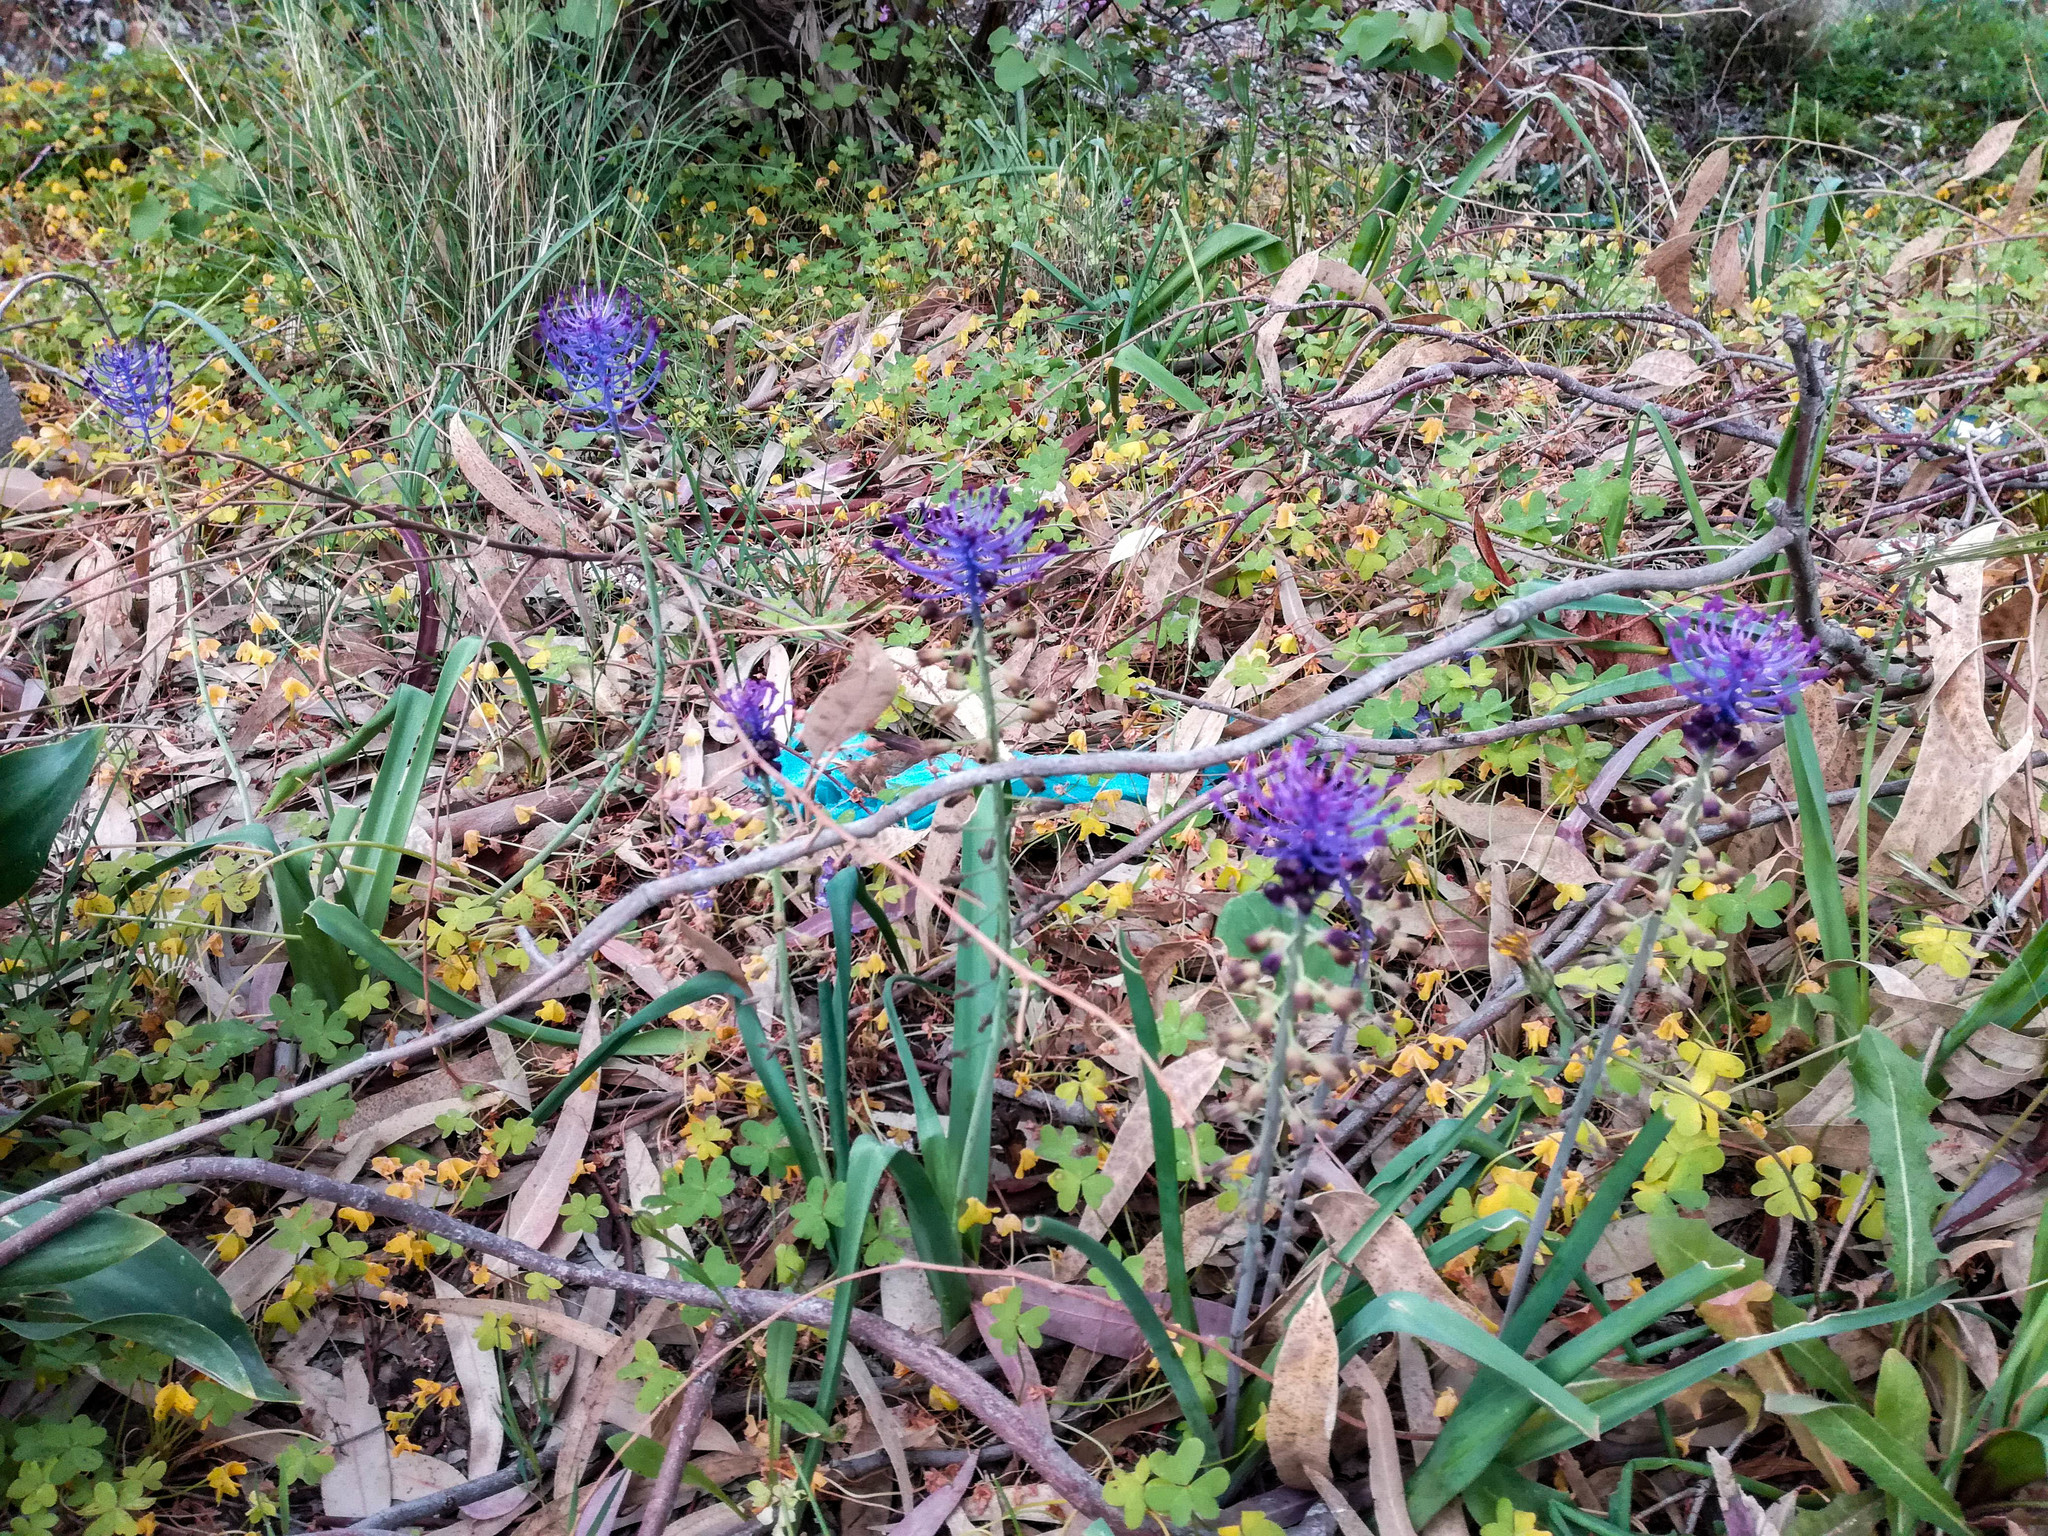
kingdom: Plantae
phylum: Tracheophyta
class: Liliopsida
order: Asparagales
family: Asparagaceae
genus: Muscari
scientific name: Muscari comosum
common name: Tassel hyacinth
